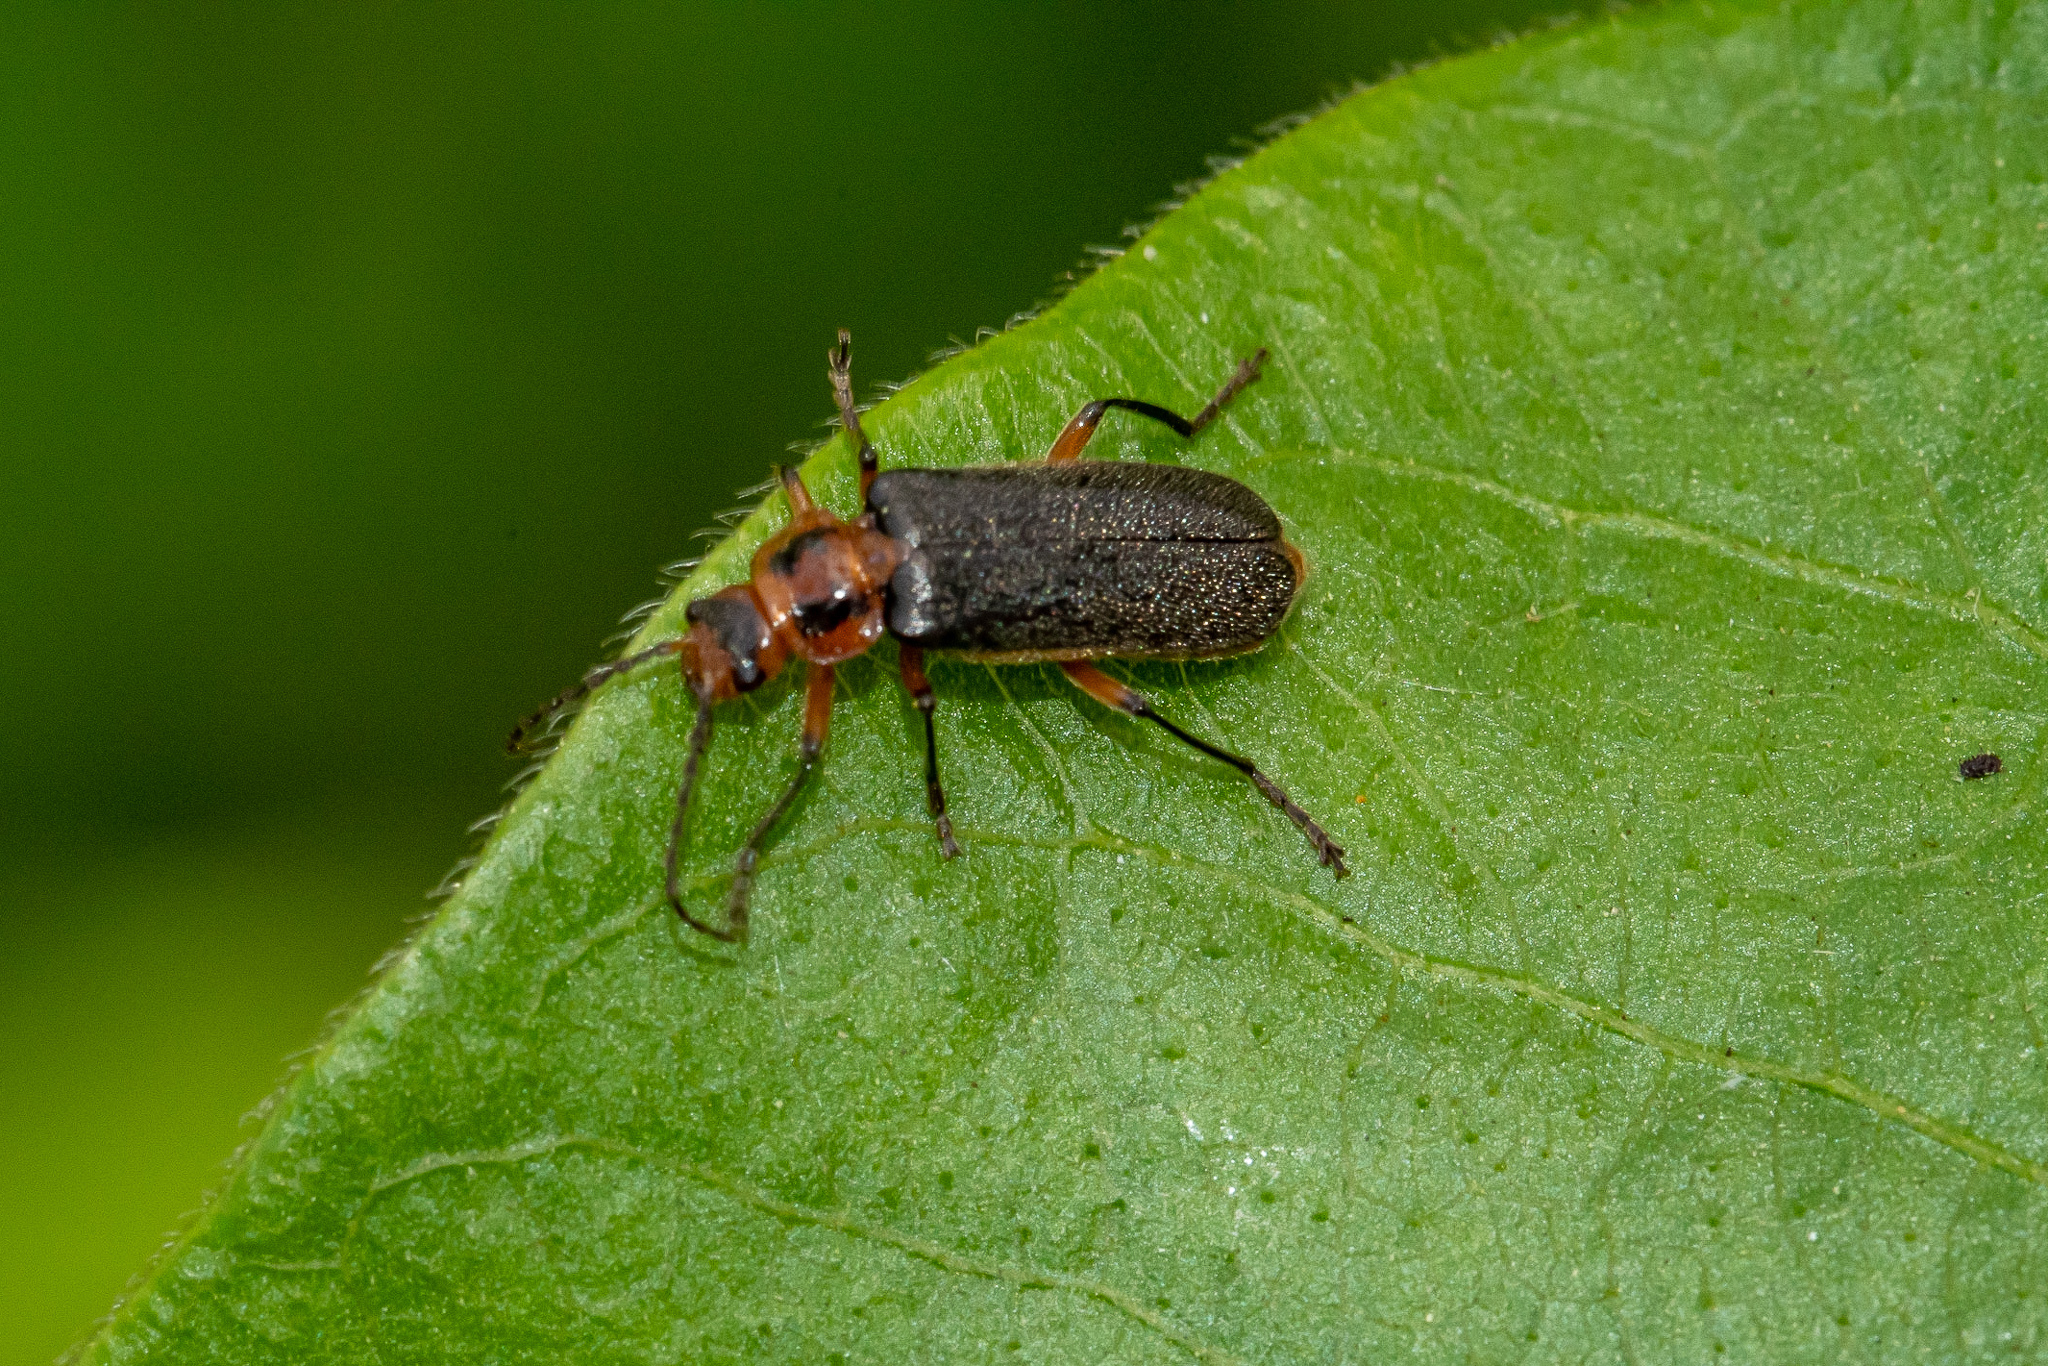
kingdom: Animalia
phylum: Arthropoda
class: Insecta
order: Coleoptera
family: Cantharidae
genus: Atalantycha
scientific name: Atalantycha bilineata
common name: Two-lined leatherwing
